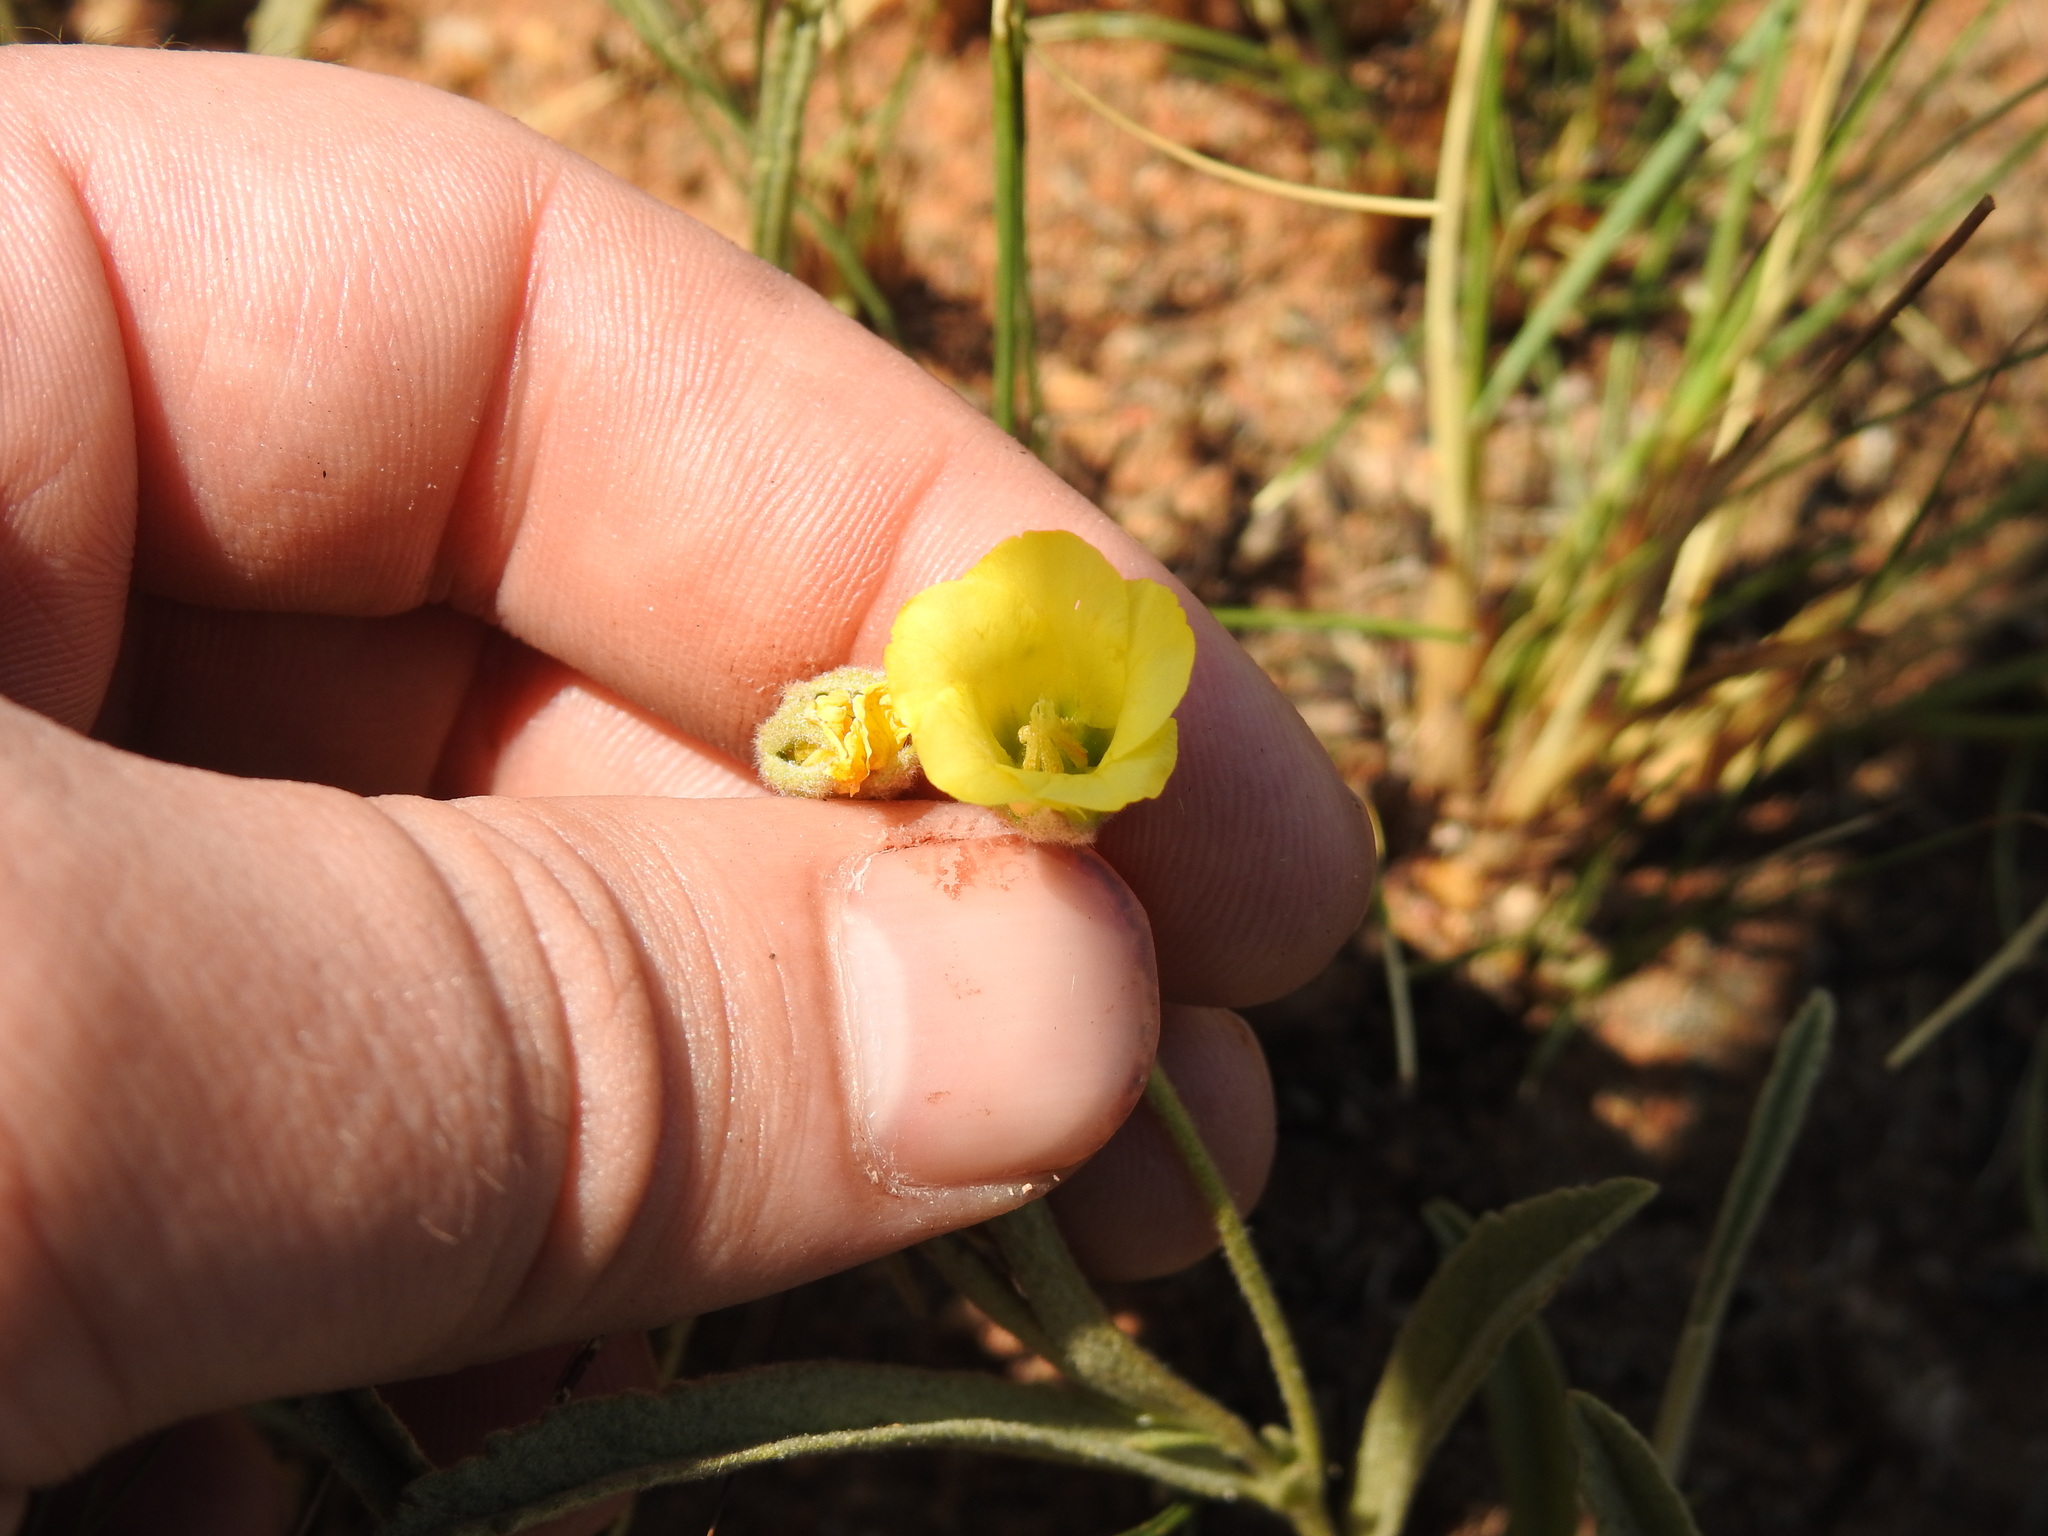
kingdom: Plantae
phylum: Tracheophyta
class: Magnoliopsida
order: Malvales
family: Malvaceae
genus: Hermannia
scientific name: Hermannia lancifolia
